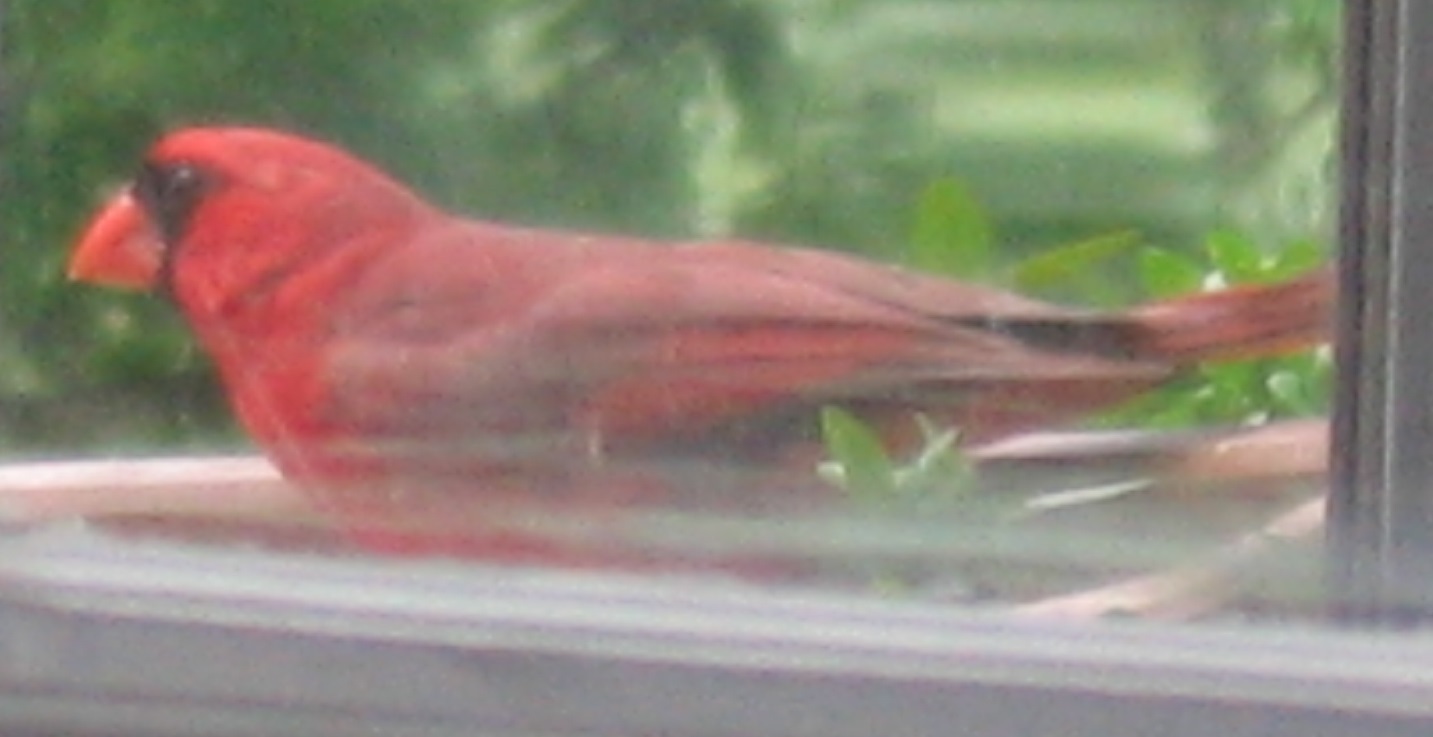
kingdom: Animalia
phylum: Chordata
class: Aves
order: Passeriformes
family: Cardinalidae
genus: Cardinalis
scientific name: Cardinalis cardinalis
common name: Northern cardinal
